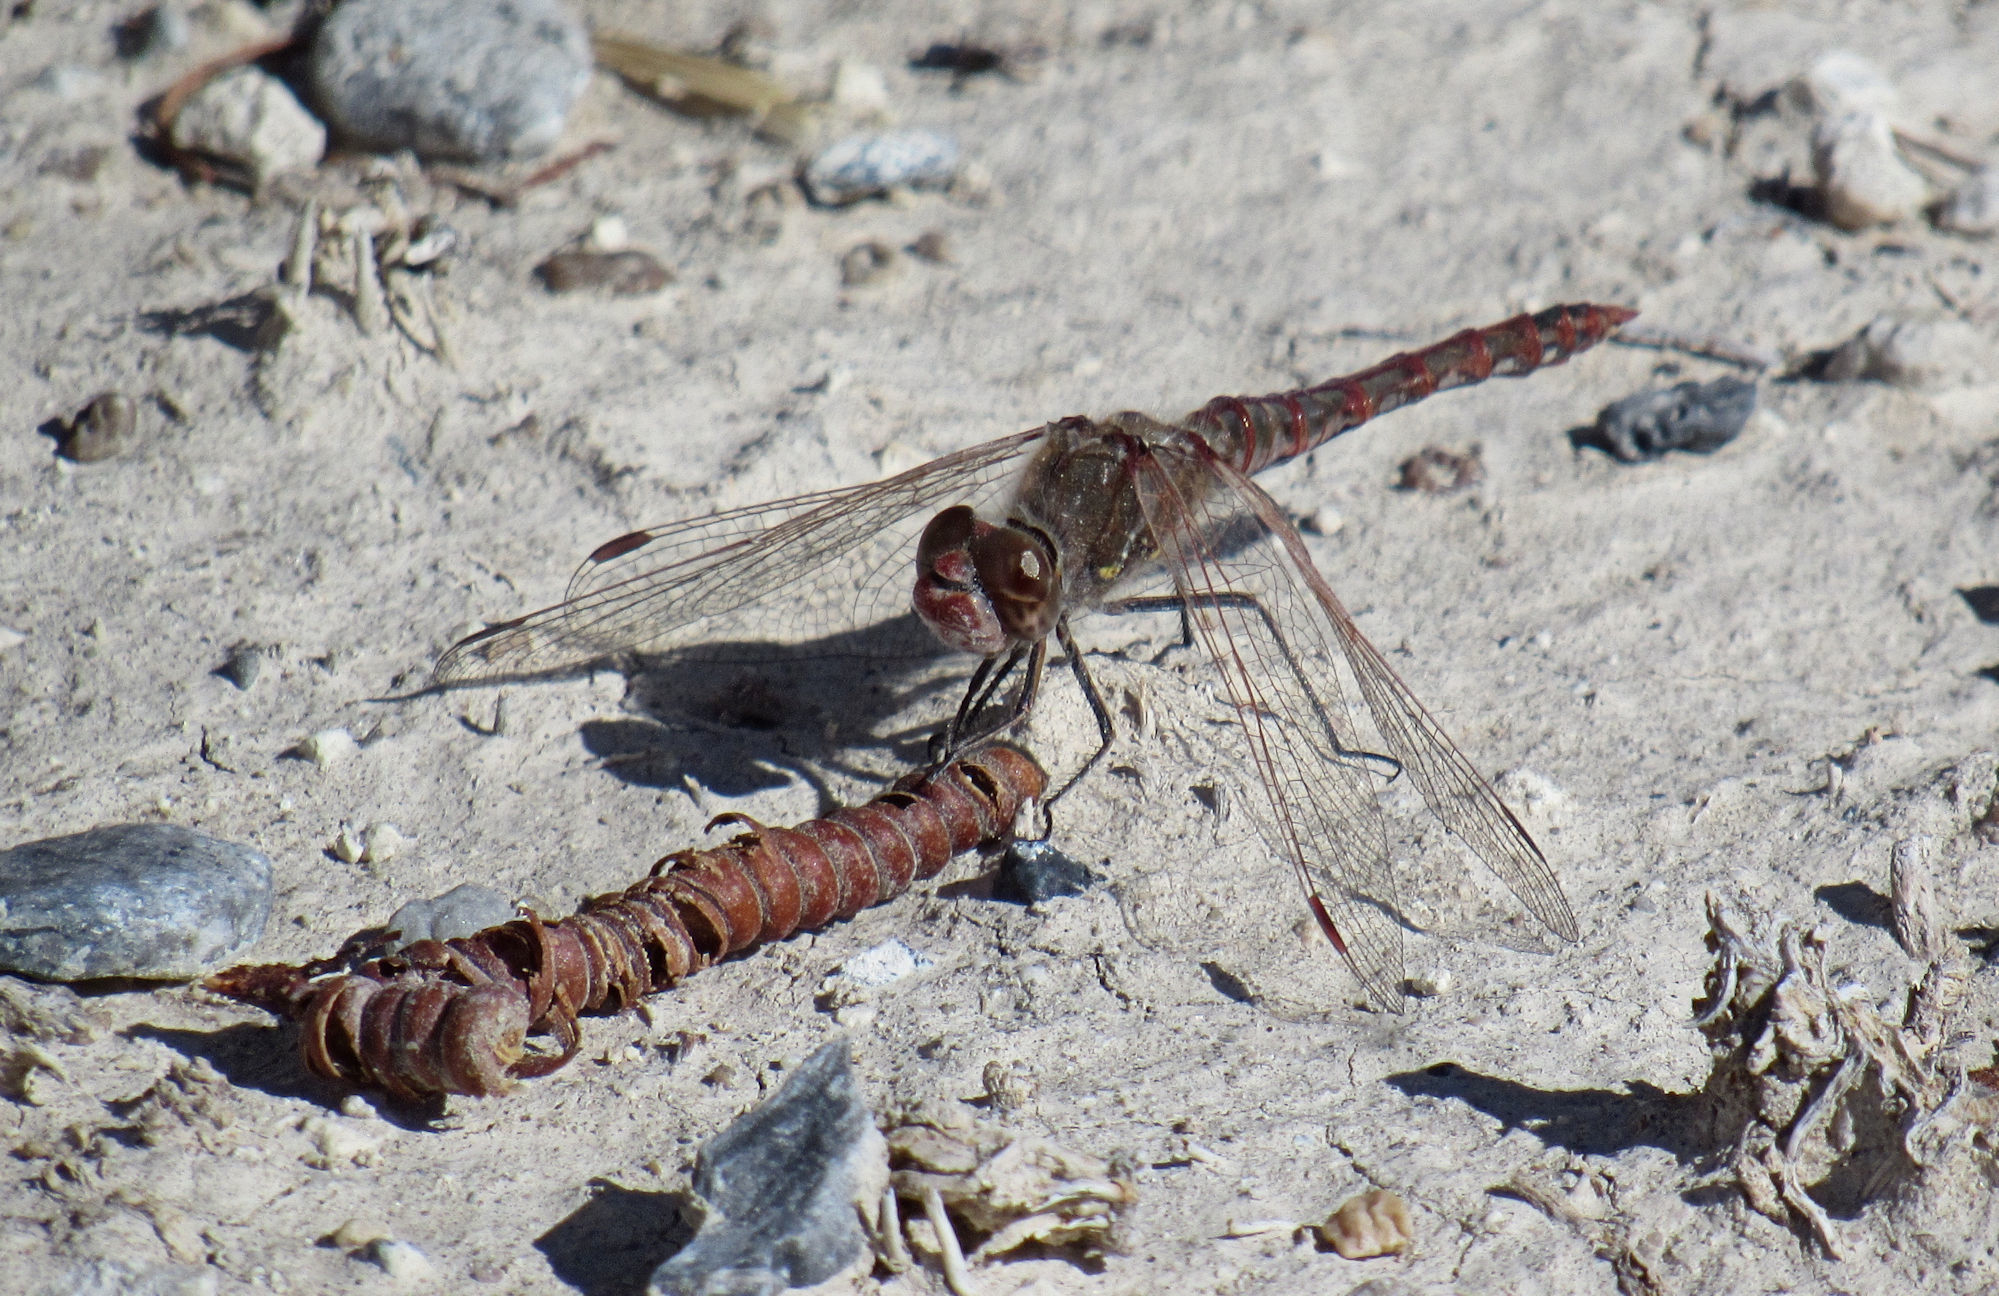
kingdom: Animalia
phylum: Arthropoda
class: Insecta
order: Odonata
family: Libellulidae
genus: Sympetrum
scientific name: Sympetrum corruptum
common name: Variegated meadowhawk
